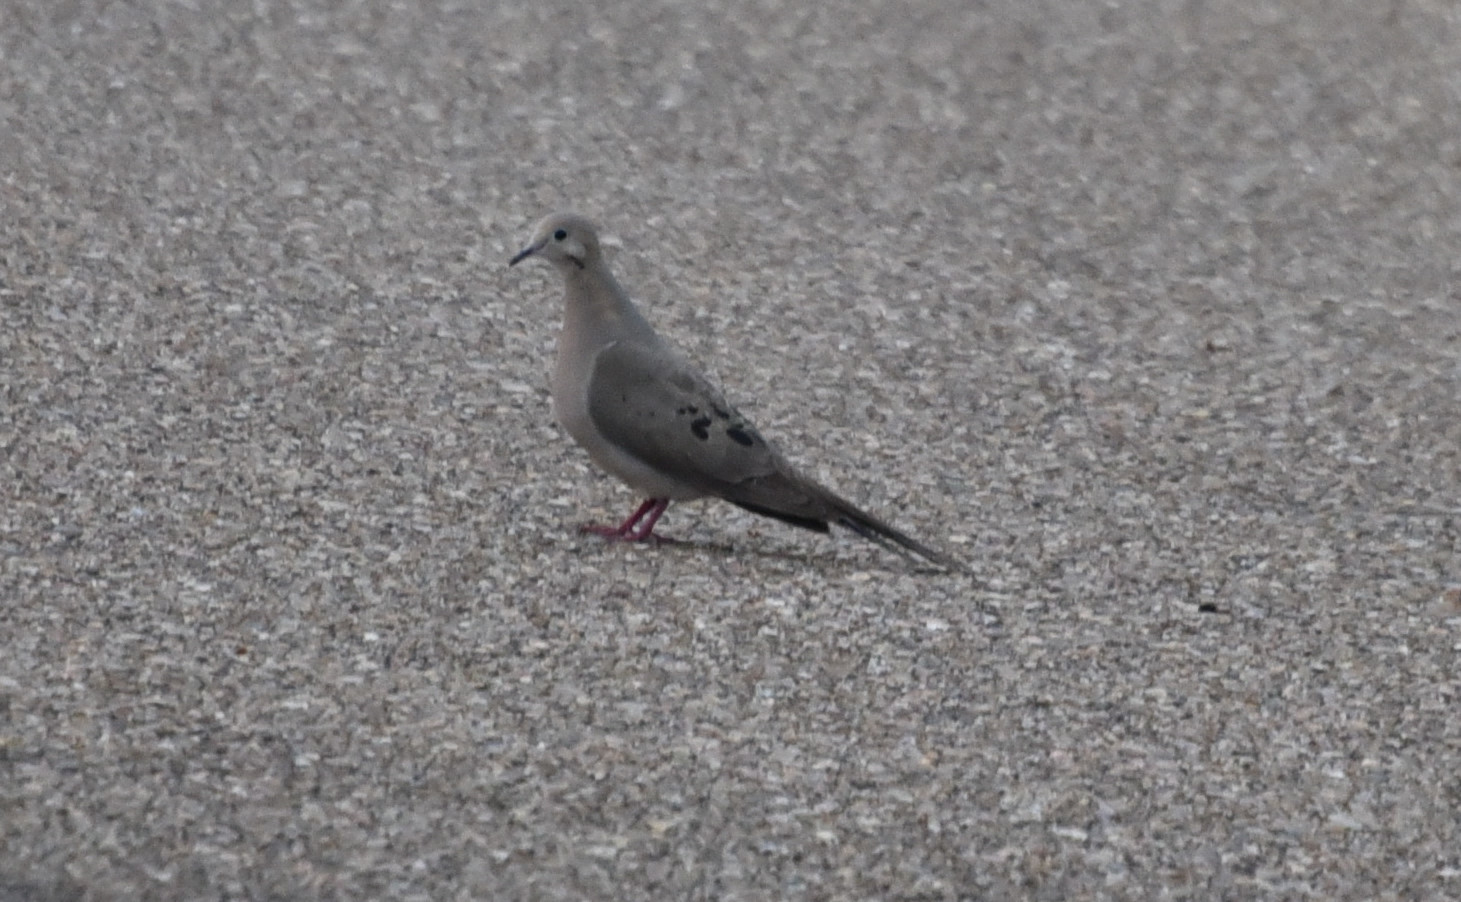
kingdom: Animalia
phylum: Chordata
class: Aves
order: Columbiformes
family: Columbidae
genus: Zenaida
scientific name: Zenaida macroura
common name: Mourning dove
